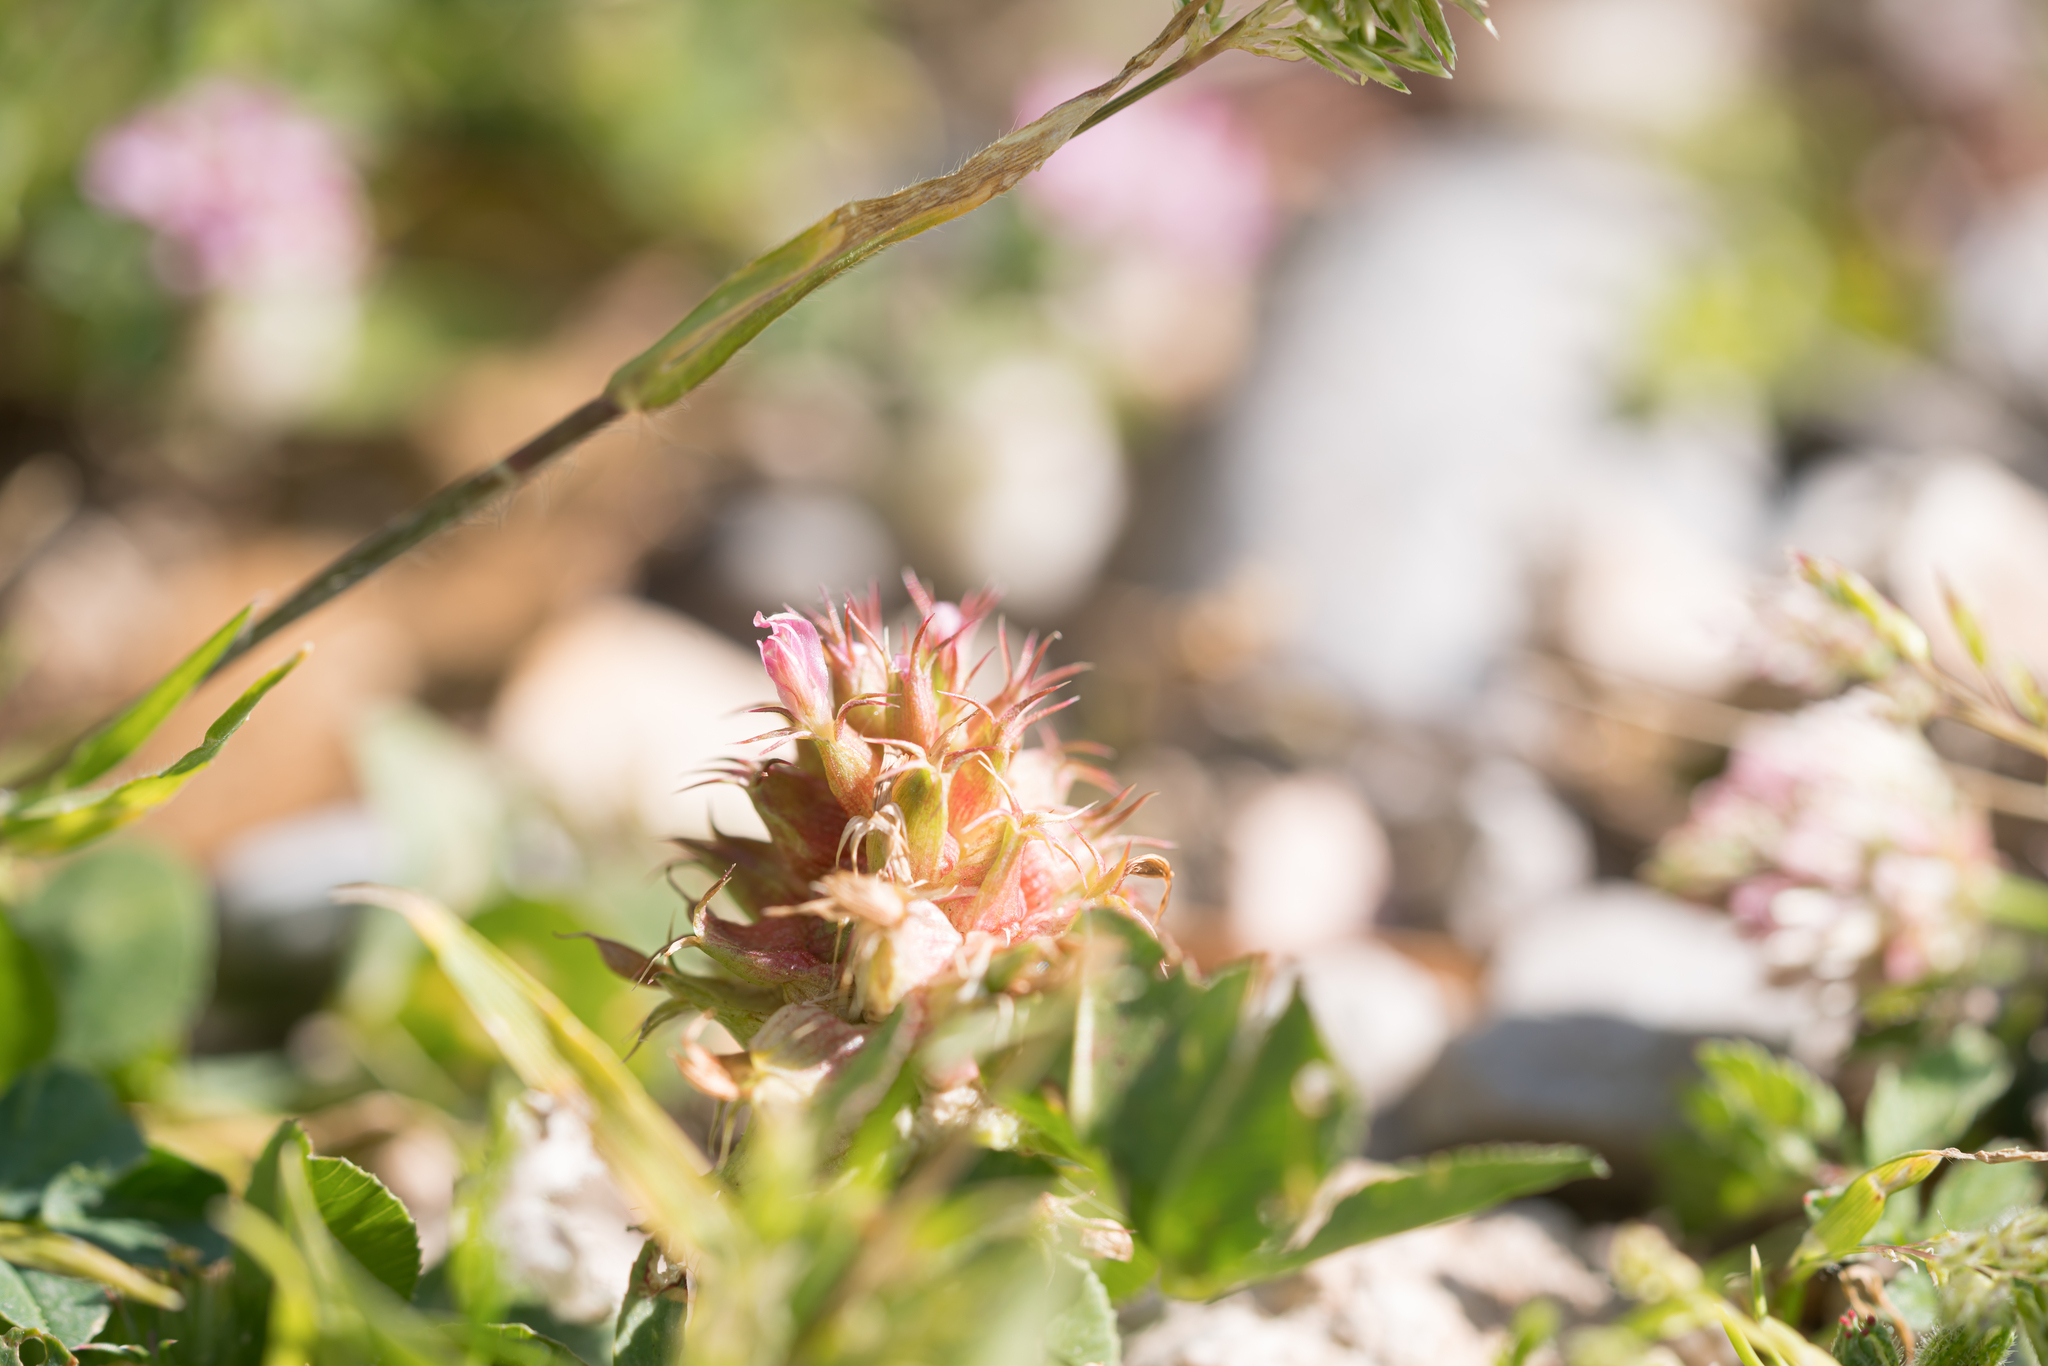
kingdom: Plantae
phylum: Tracheophyta
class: Magnoliopsida
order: Fabales
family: Fabaceae
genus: Trifolium
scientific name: Trifolium spumosum
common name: Mediterranean clover
